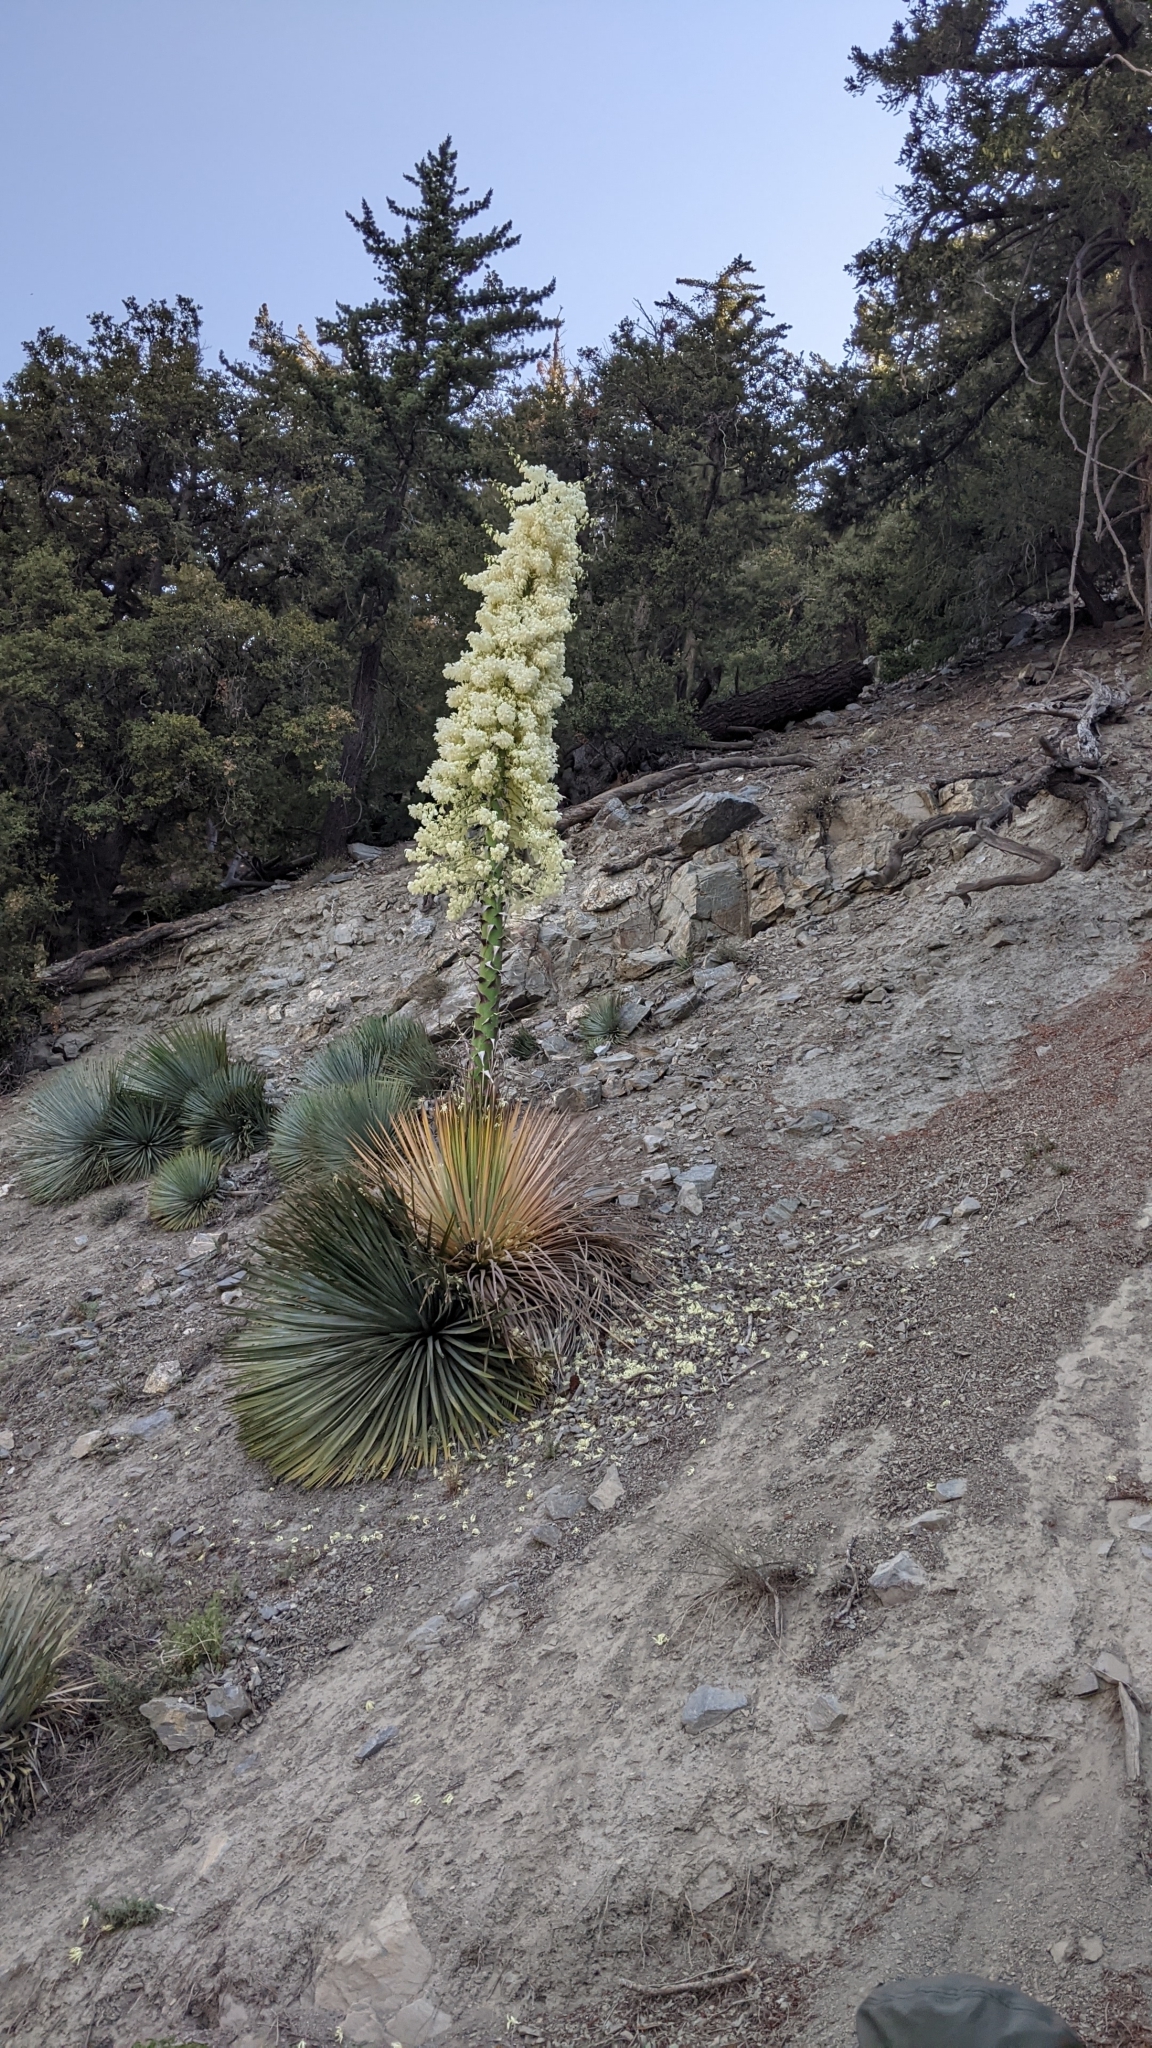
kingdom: Plantae
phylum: Tracheophyta
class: Liliopsida
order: Asparagales
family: Asparagaceae
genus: Hesperoyucca
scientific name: Hesperoyucca whipplei
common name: Our lord's-candle
